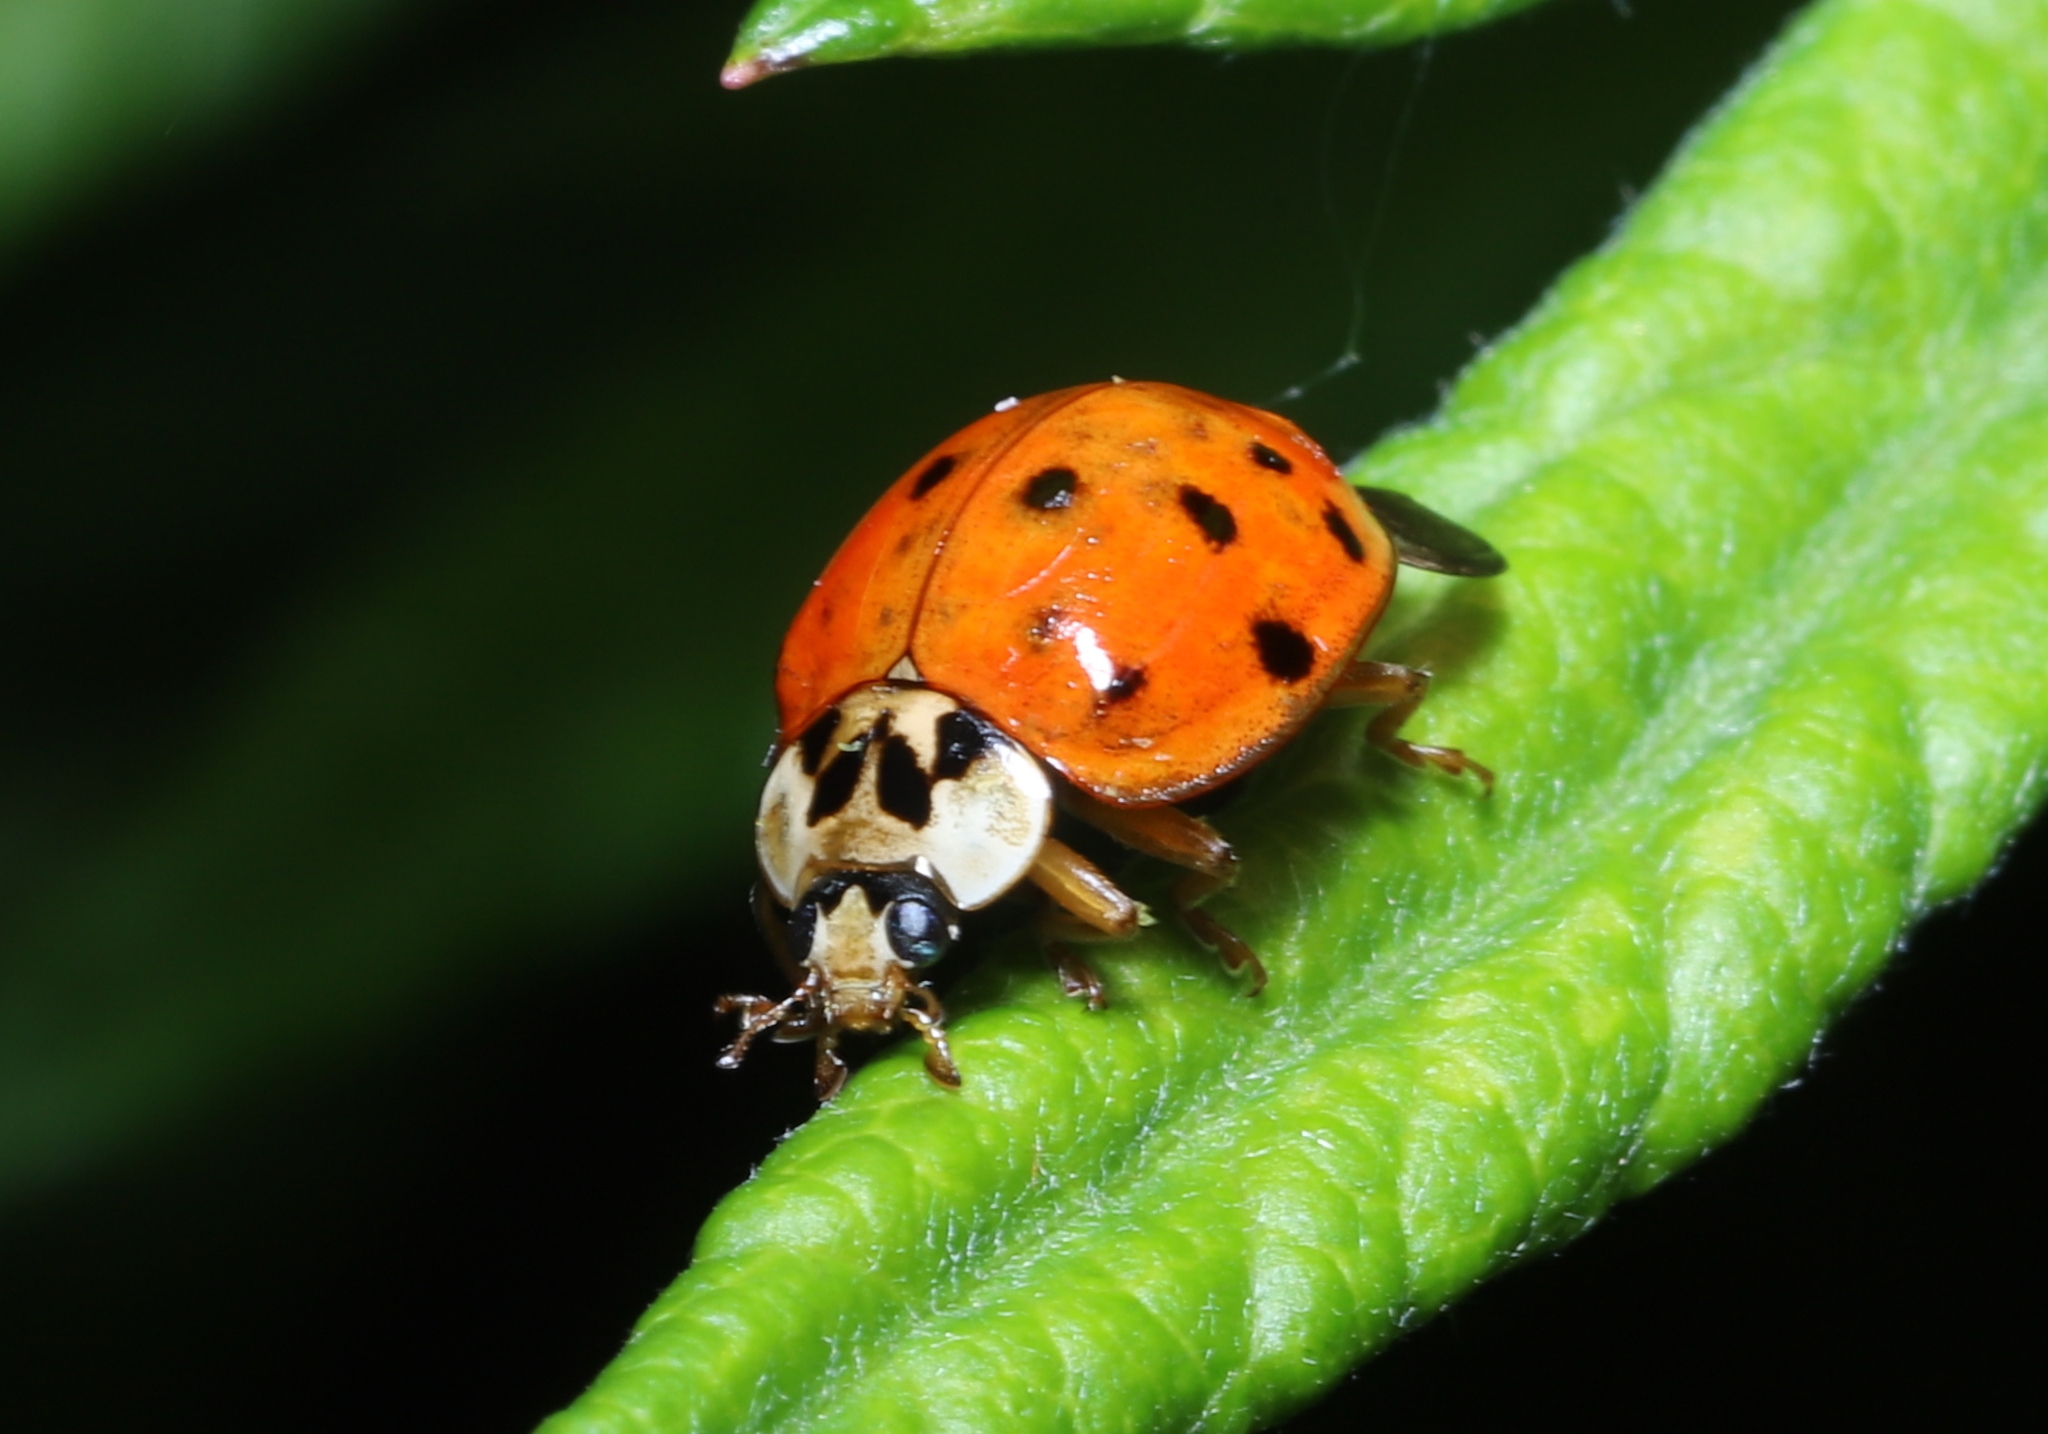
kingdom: Animalia
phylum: Arthropoda
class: Insecta
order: Coleoptera
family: Coccinellidae
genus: Harmonia
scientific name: Harmonia axyridis
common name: Harlequin ladybird
